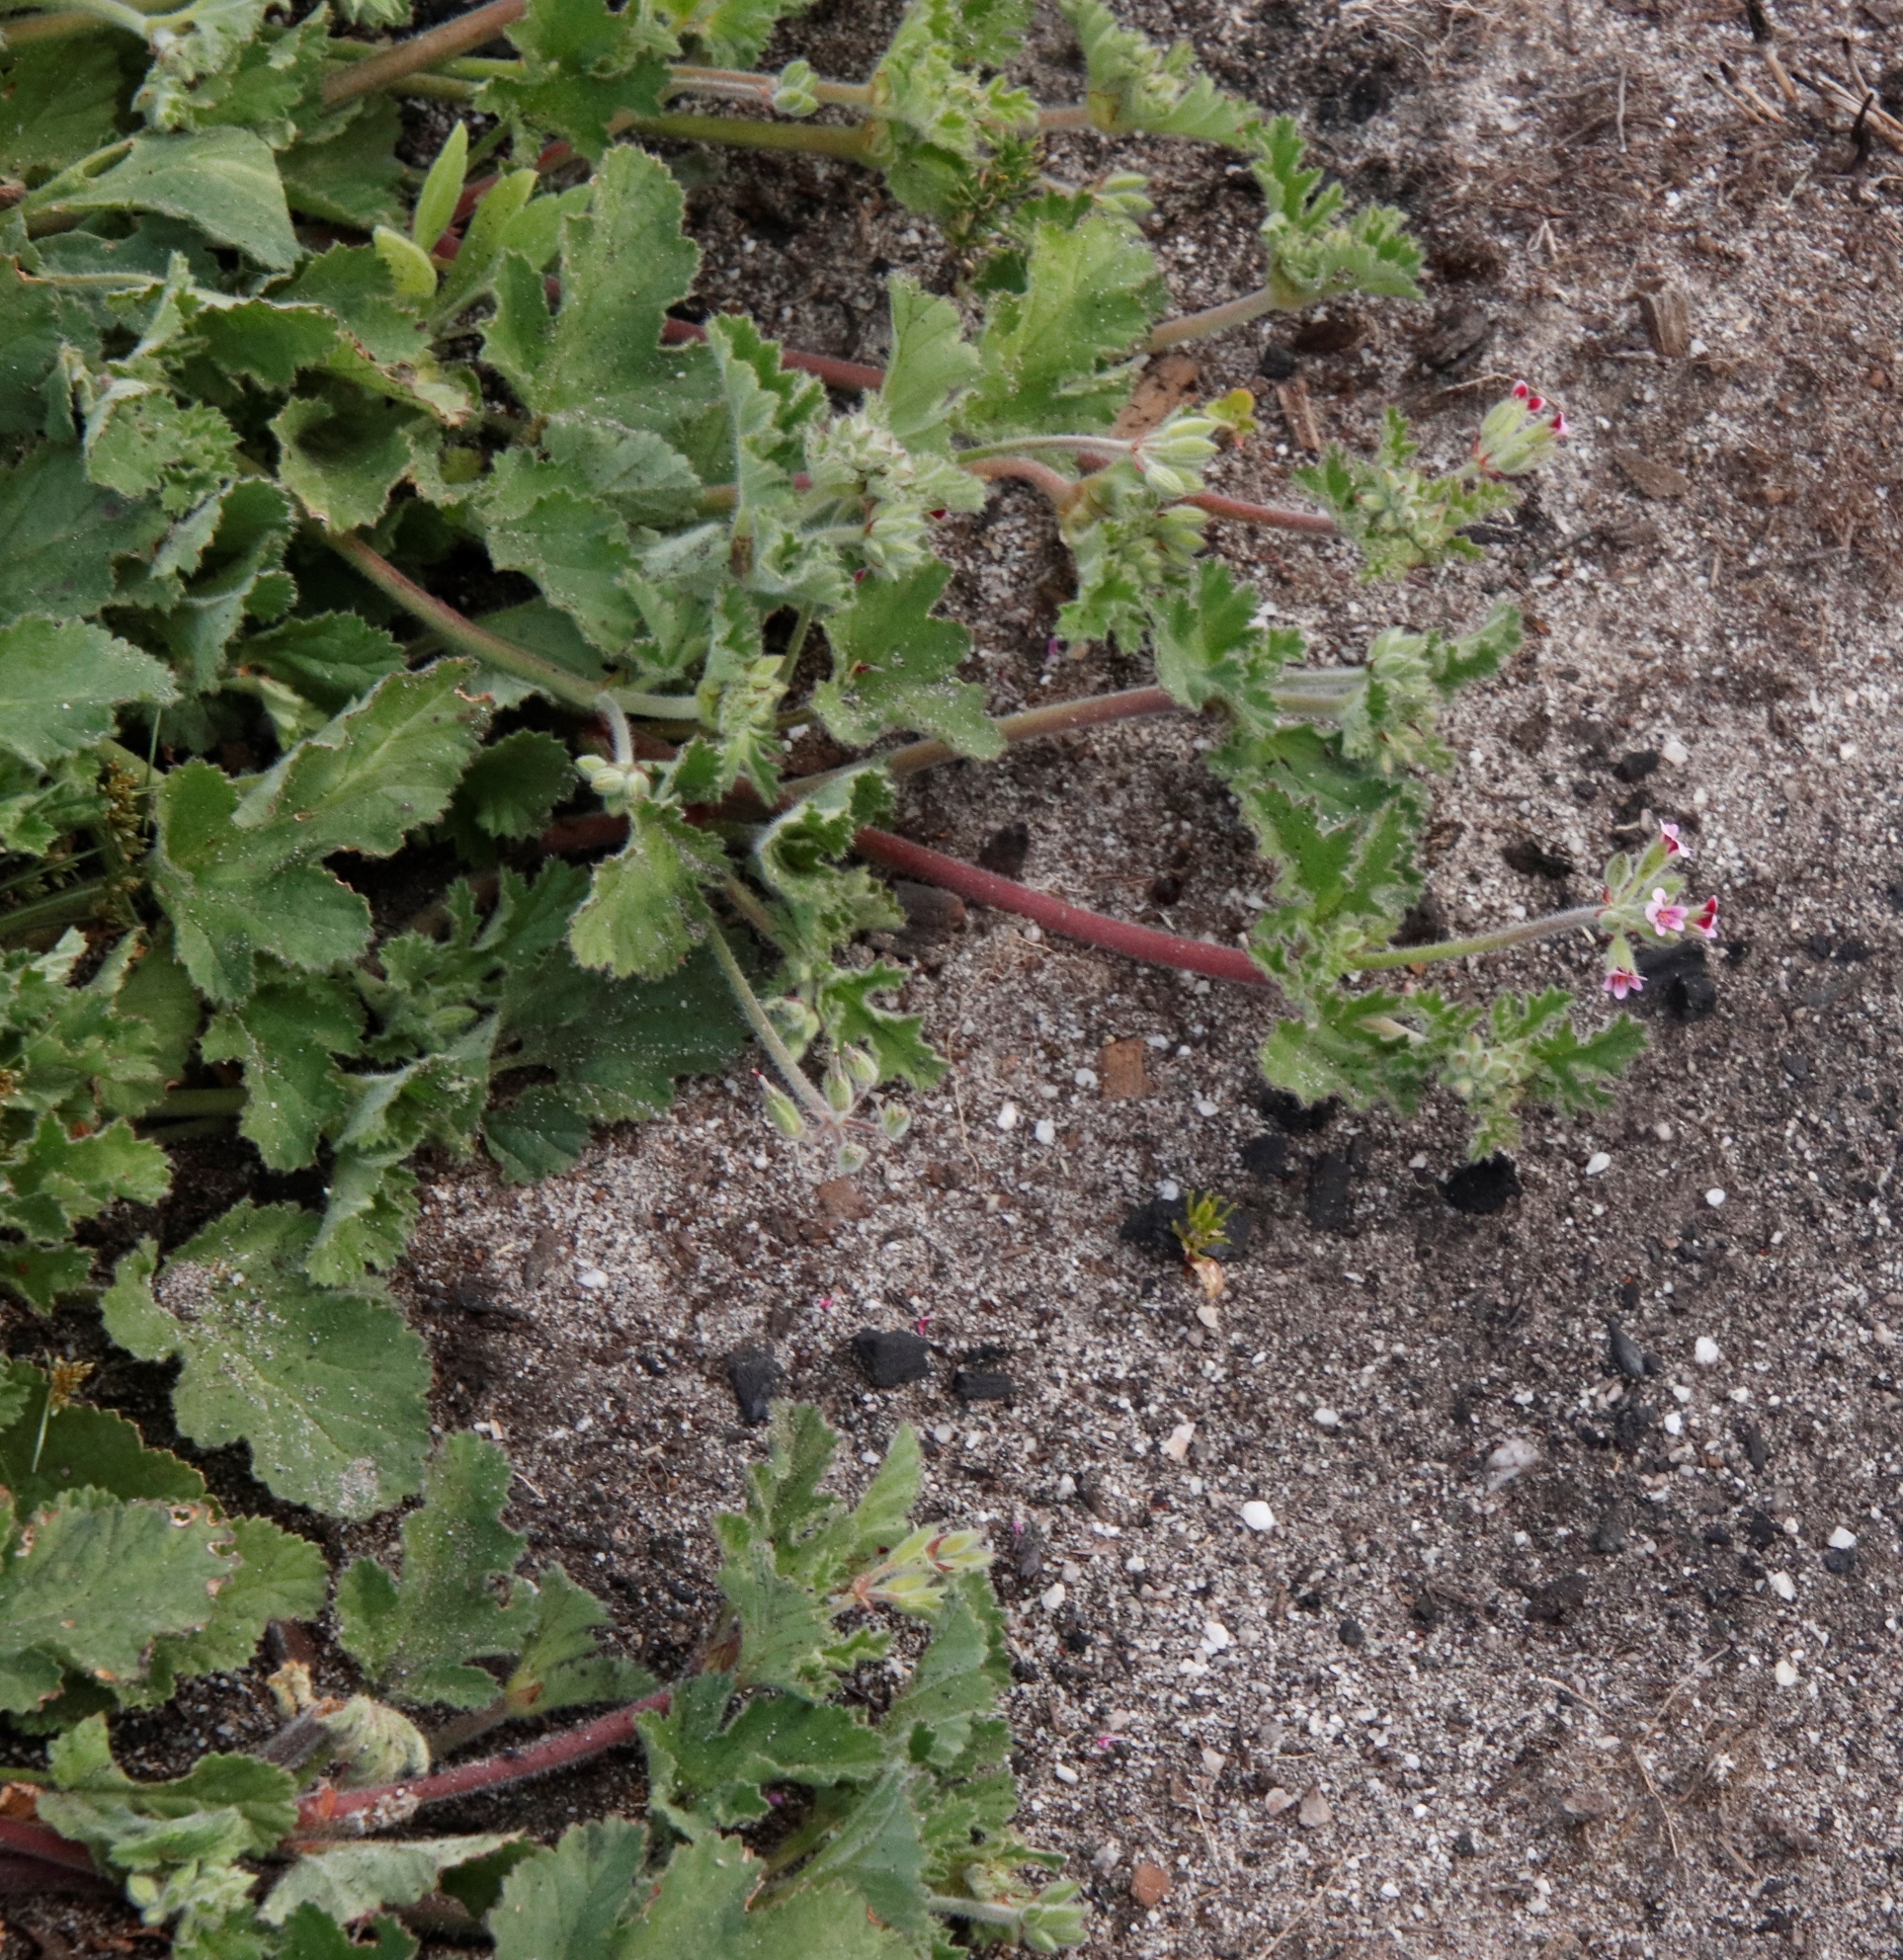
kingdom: Plantae
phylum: Tracheophyta
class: Magnoliopsida
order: Geraniales
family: Geraniaceae
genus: Pelargonium
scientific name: Pelargonium althaeoides
